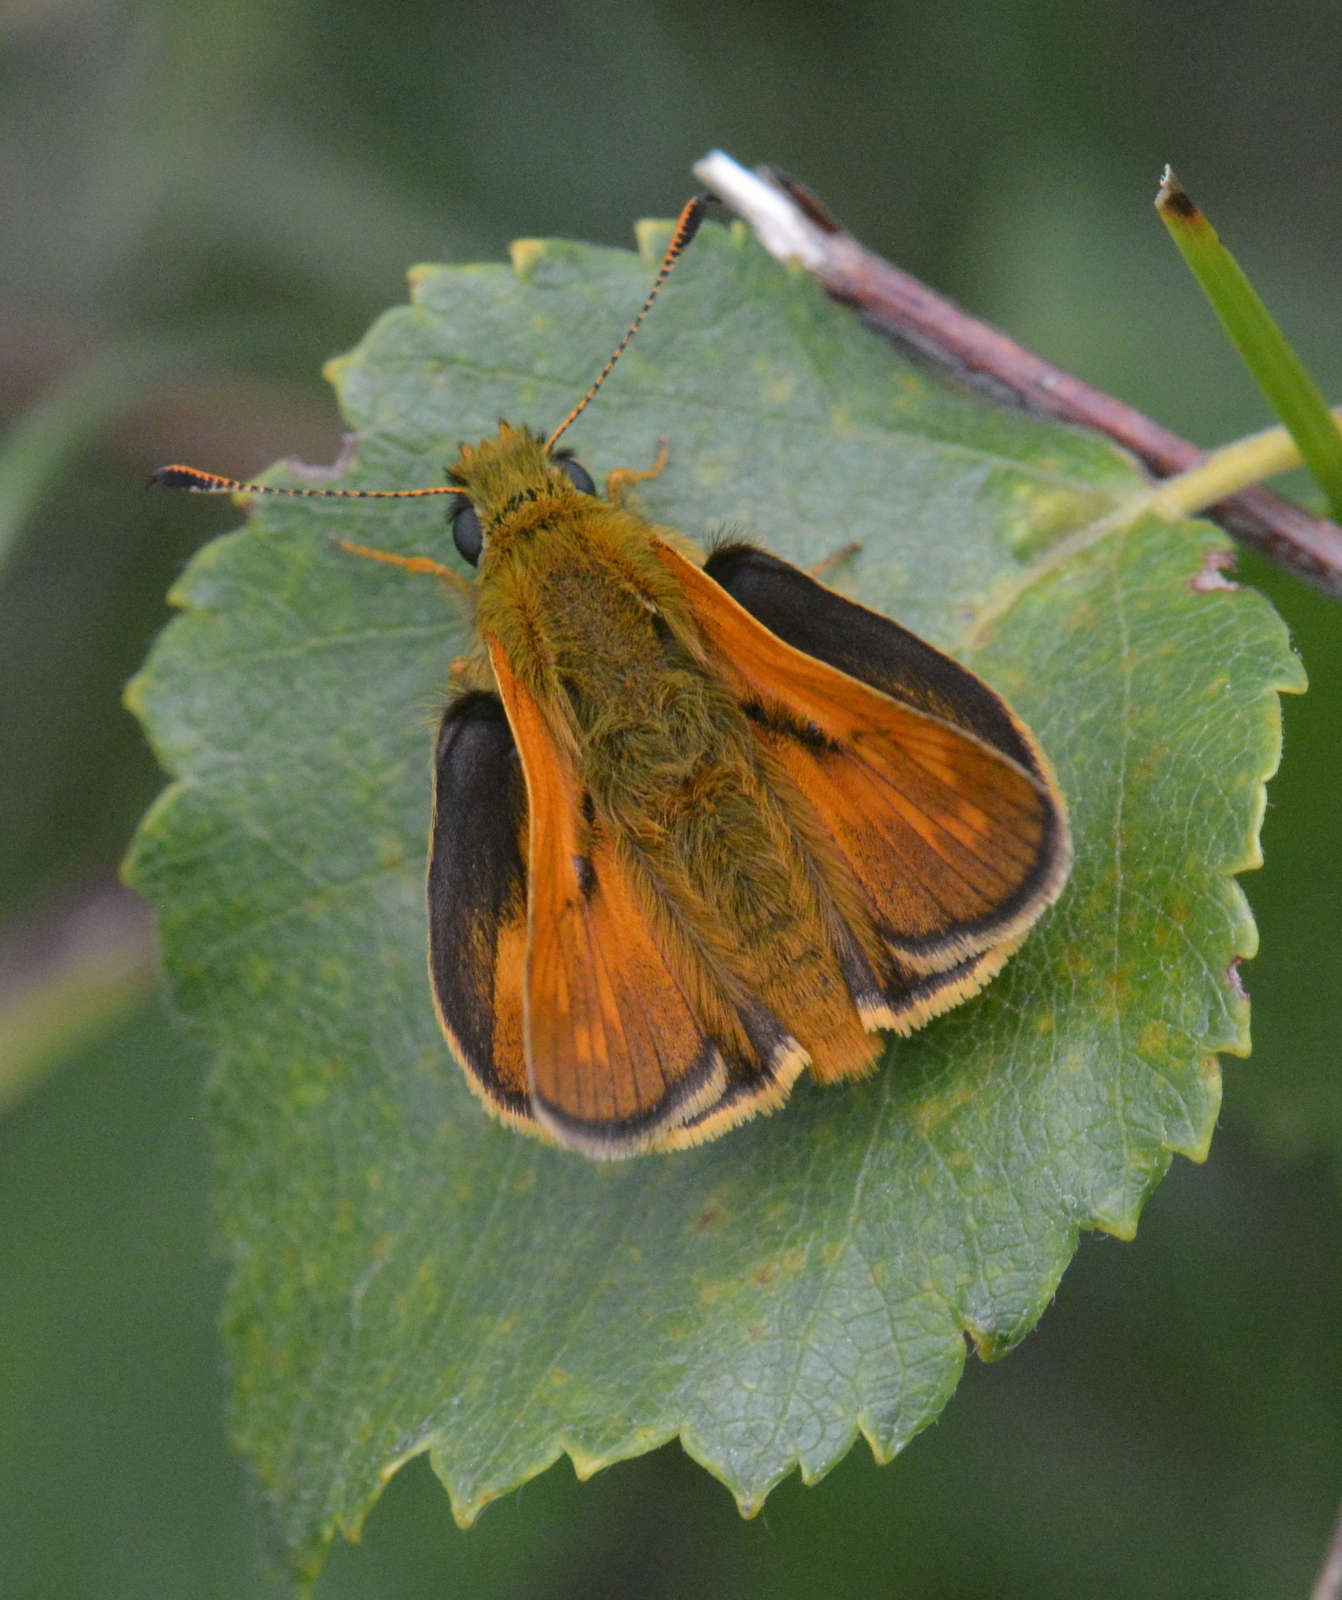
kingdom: Animalia
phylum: Arthropoda
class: Insecta
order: Lepidoptera
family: Hesperiidae
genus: Ochlodes
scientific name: Ochlodes venata
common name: Large skipper
